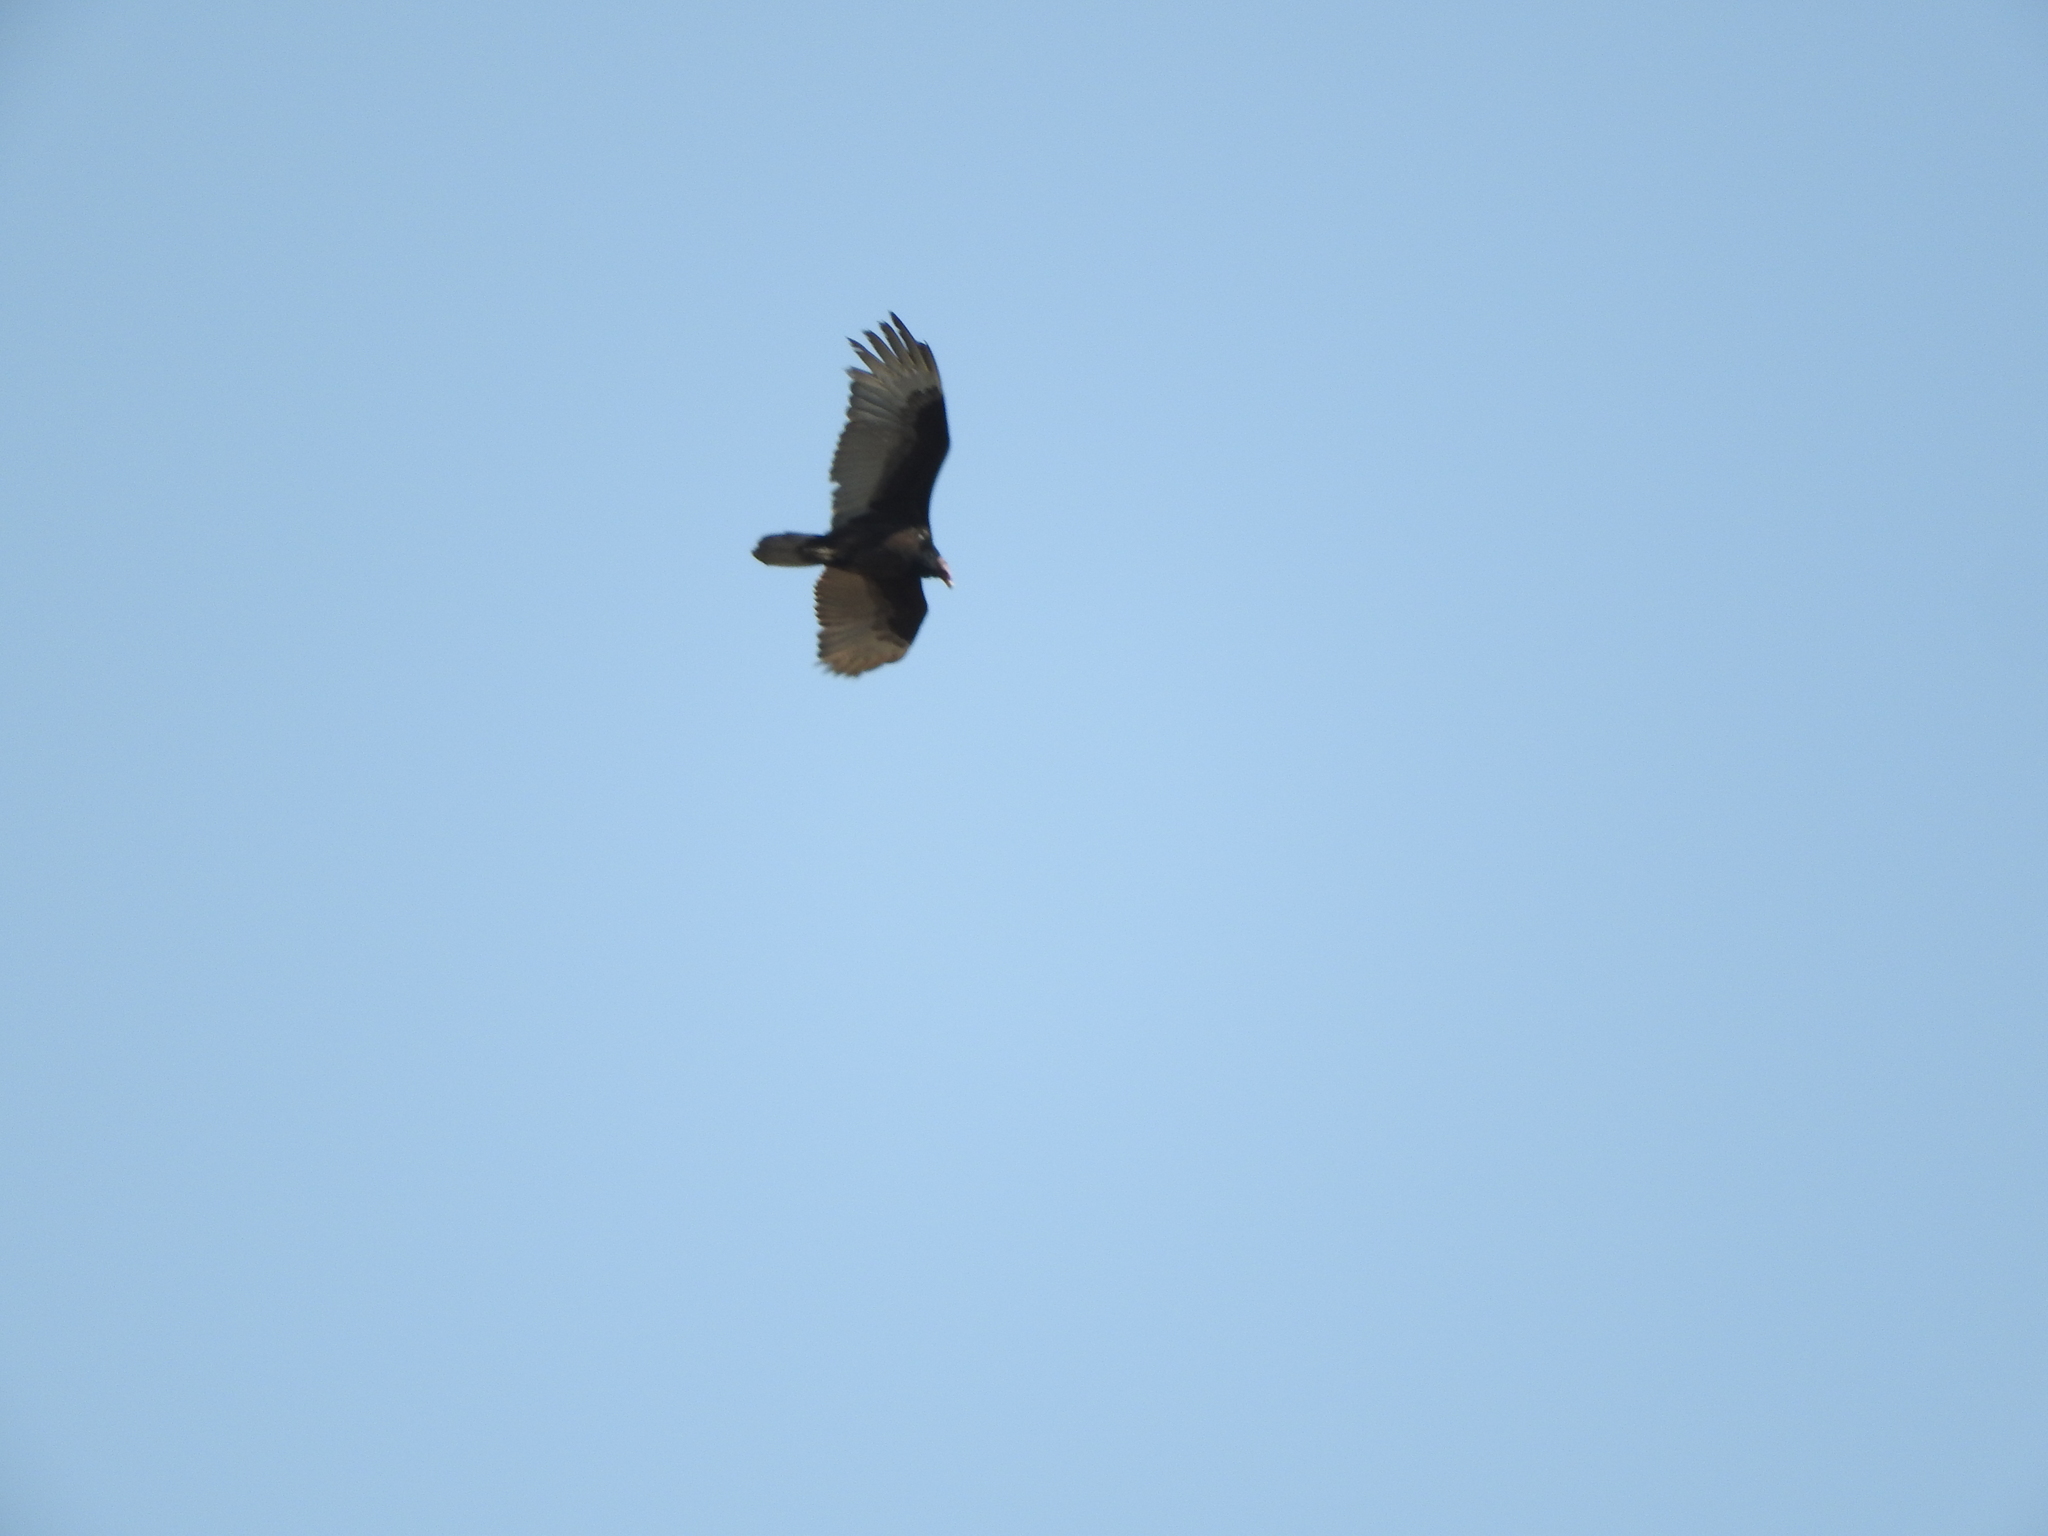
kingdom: Animalia
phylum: Chordata
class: Aves
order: Accipitriformes
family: Cathartidae
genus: Cathartes
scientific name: Cathartes aura
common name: Turkey vulture
